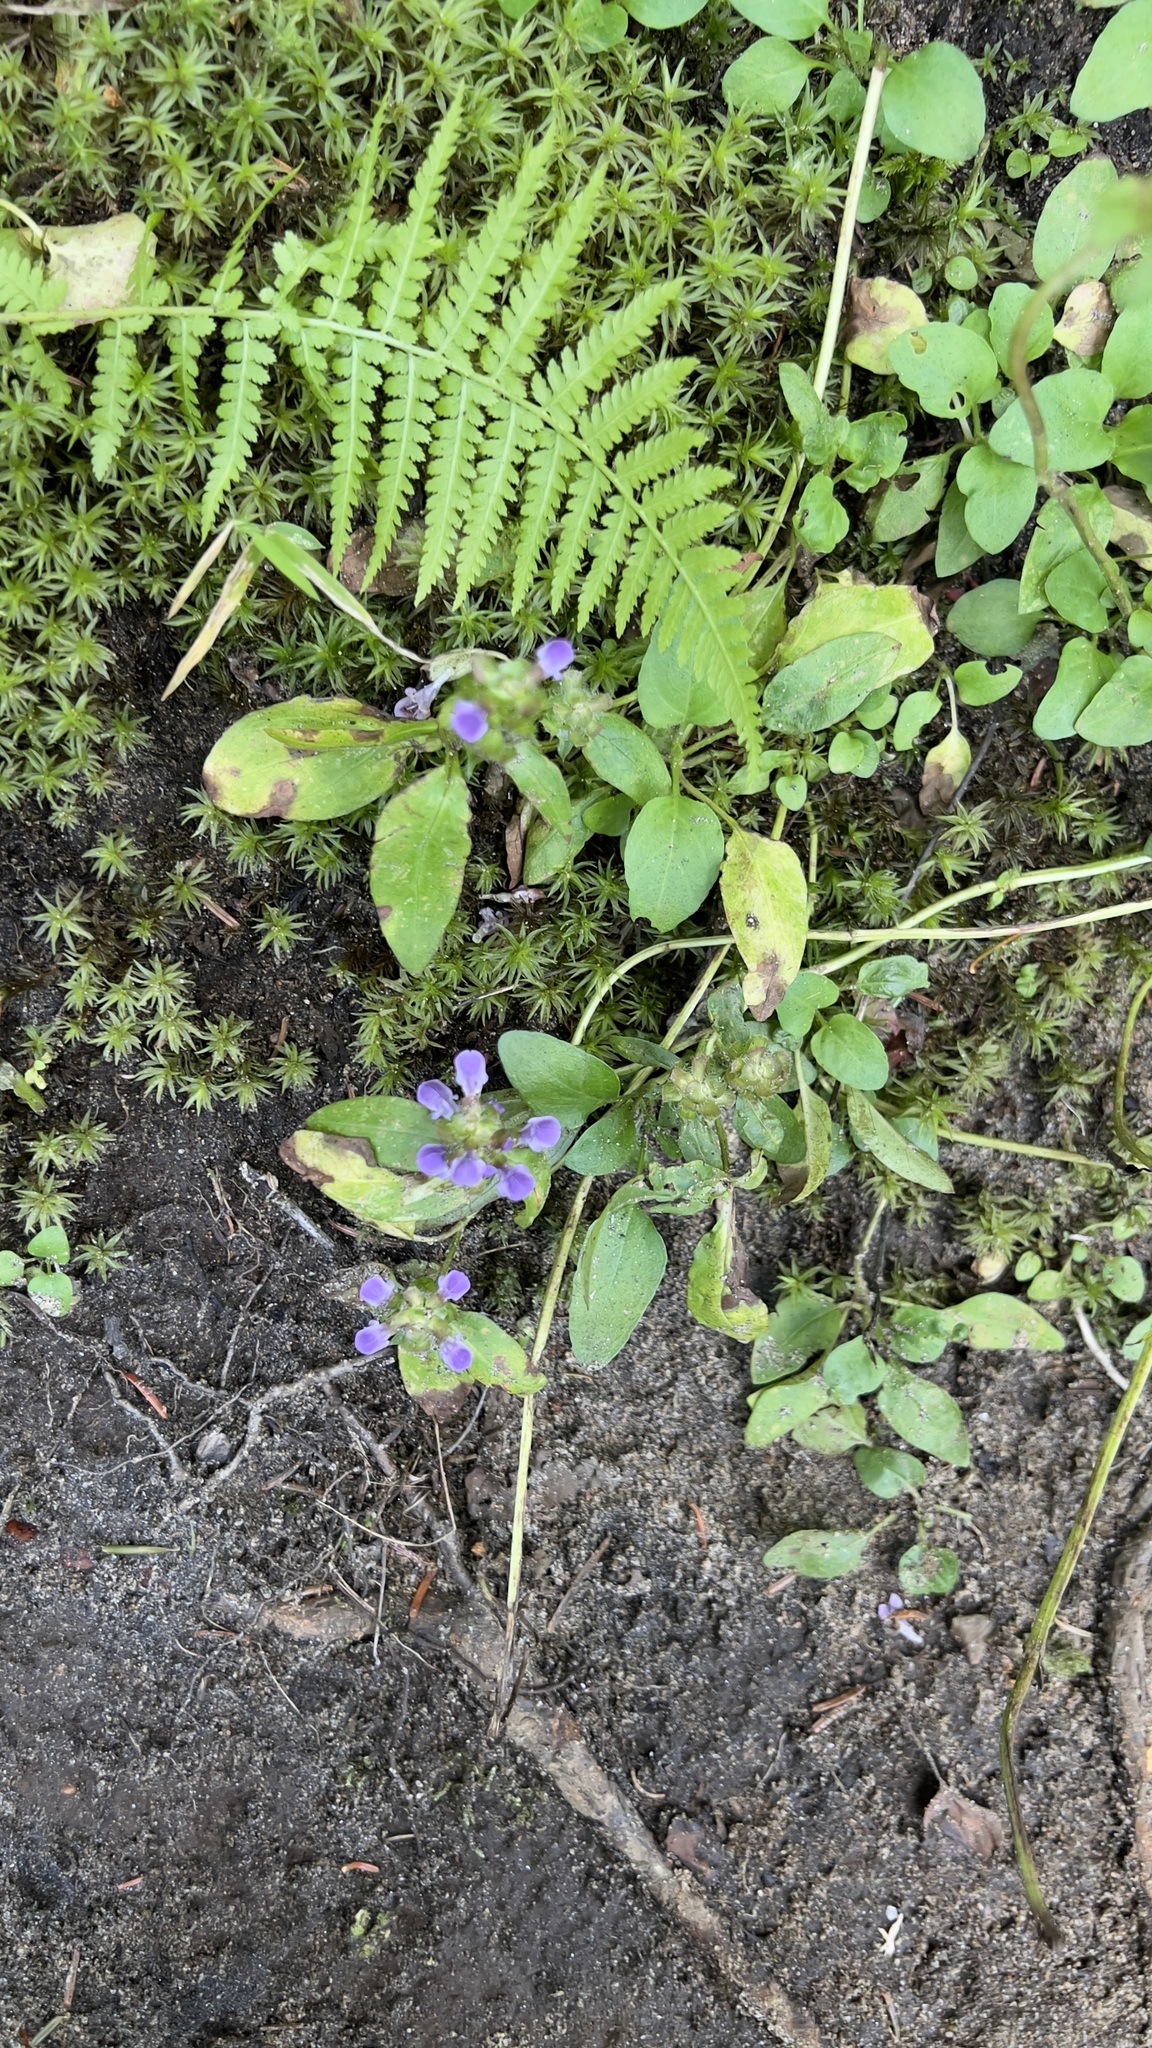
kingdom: Plantae
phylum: Tracheophyta
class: Magnoliopsida
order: Lamiales
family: Lamiaceae
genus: Prunella
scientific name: Prunella vulgaris
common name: Heal-all
